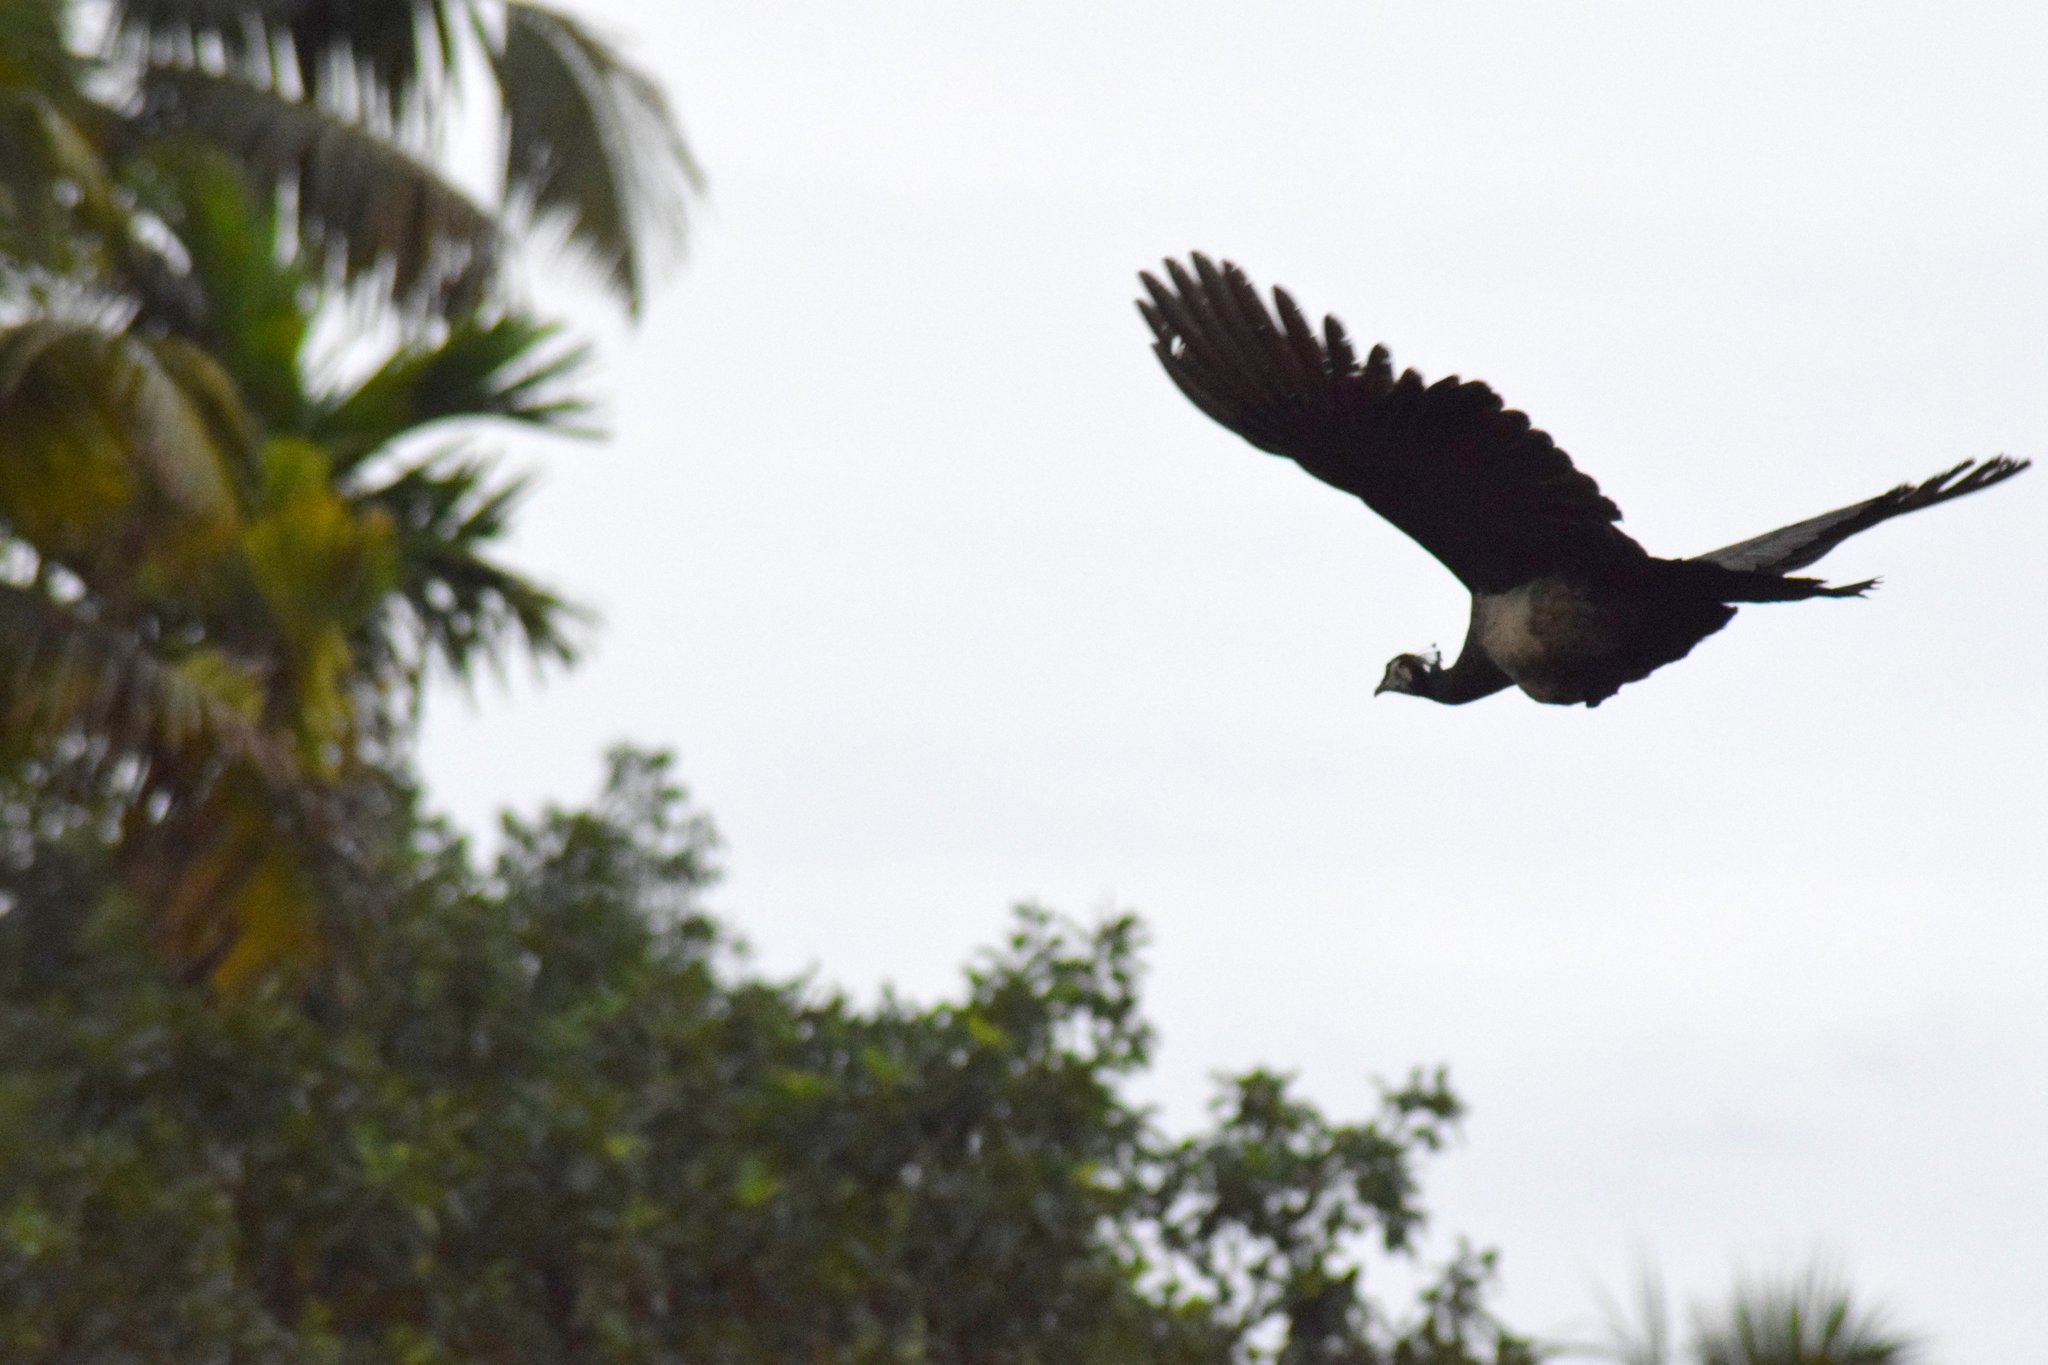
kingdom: Animalia
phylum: Chordata
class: Aves
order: Galliformes
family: Phasianidae
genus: Pavo
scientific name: Pavo cristatus
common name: Indian peafowl
